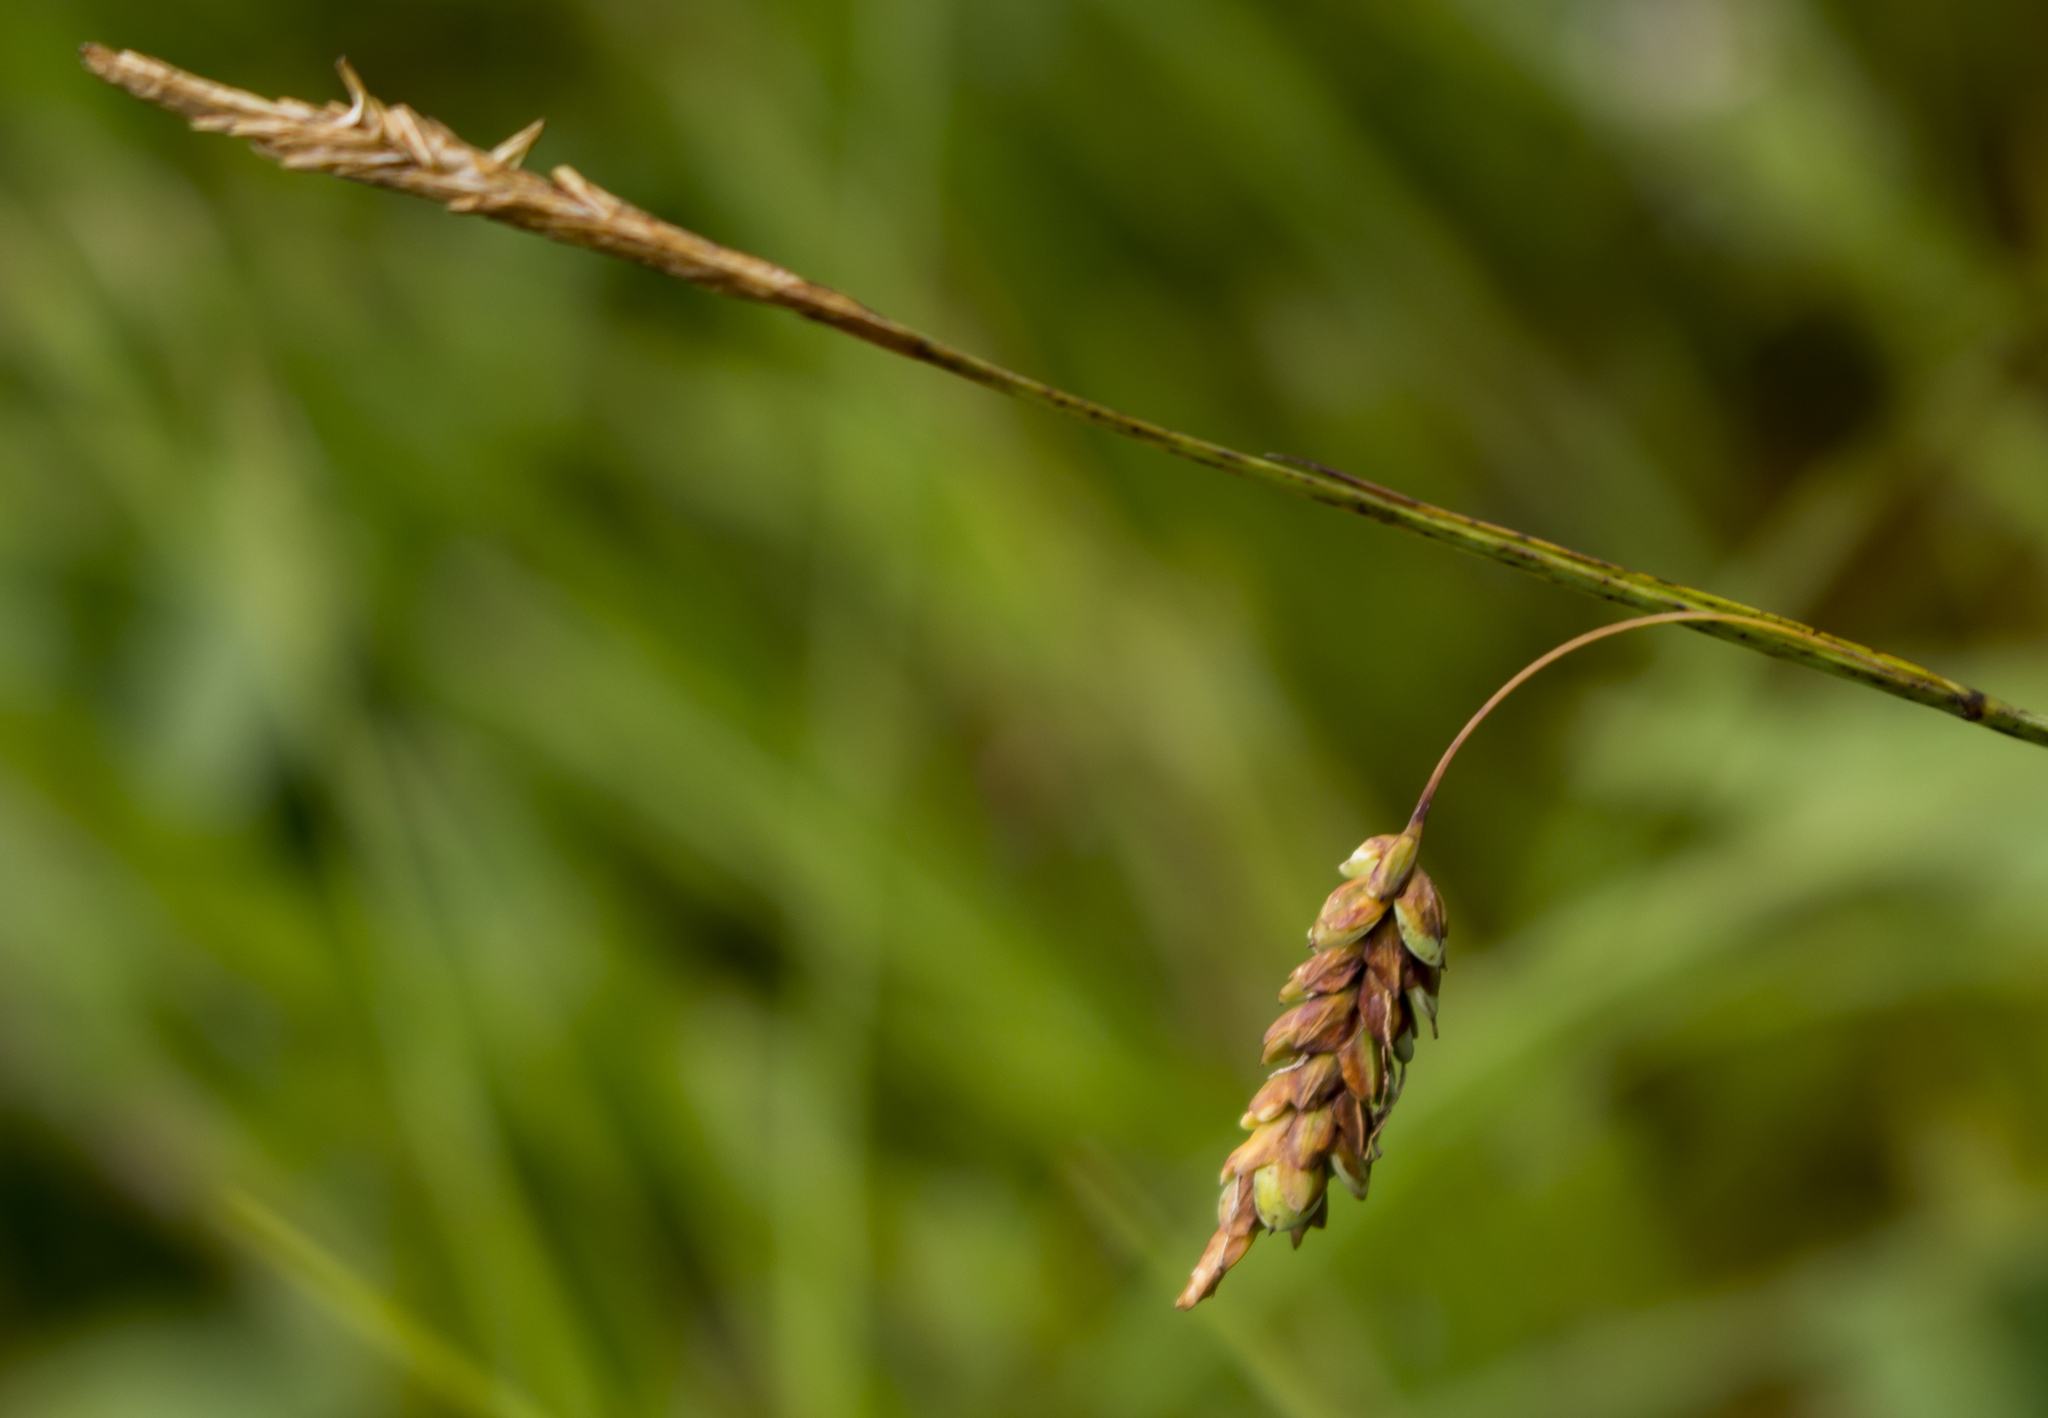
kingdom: Plantae
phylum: Tracheophyta
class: Liliopsida
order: Poales
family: Cyperaceae
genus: Carex
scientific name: Carex limosa
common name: Bog sedge
